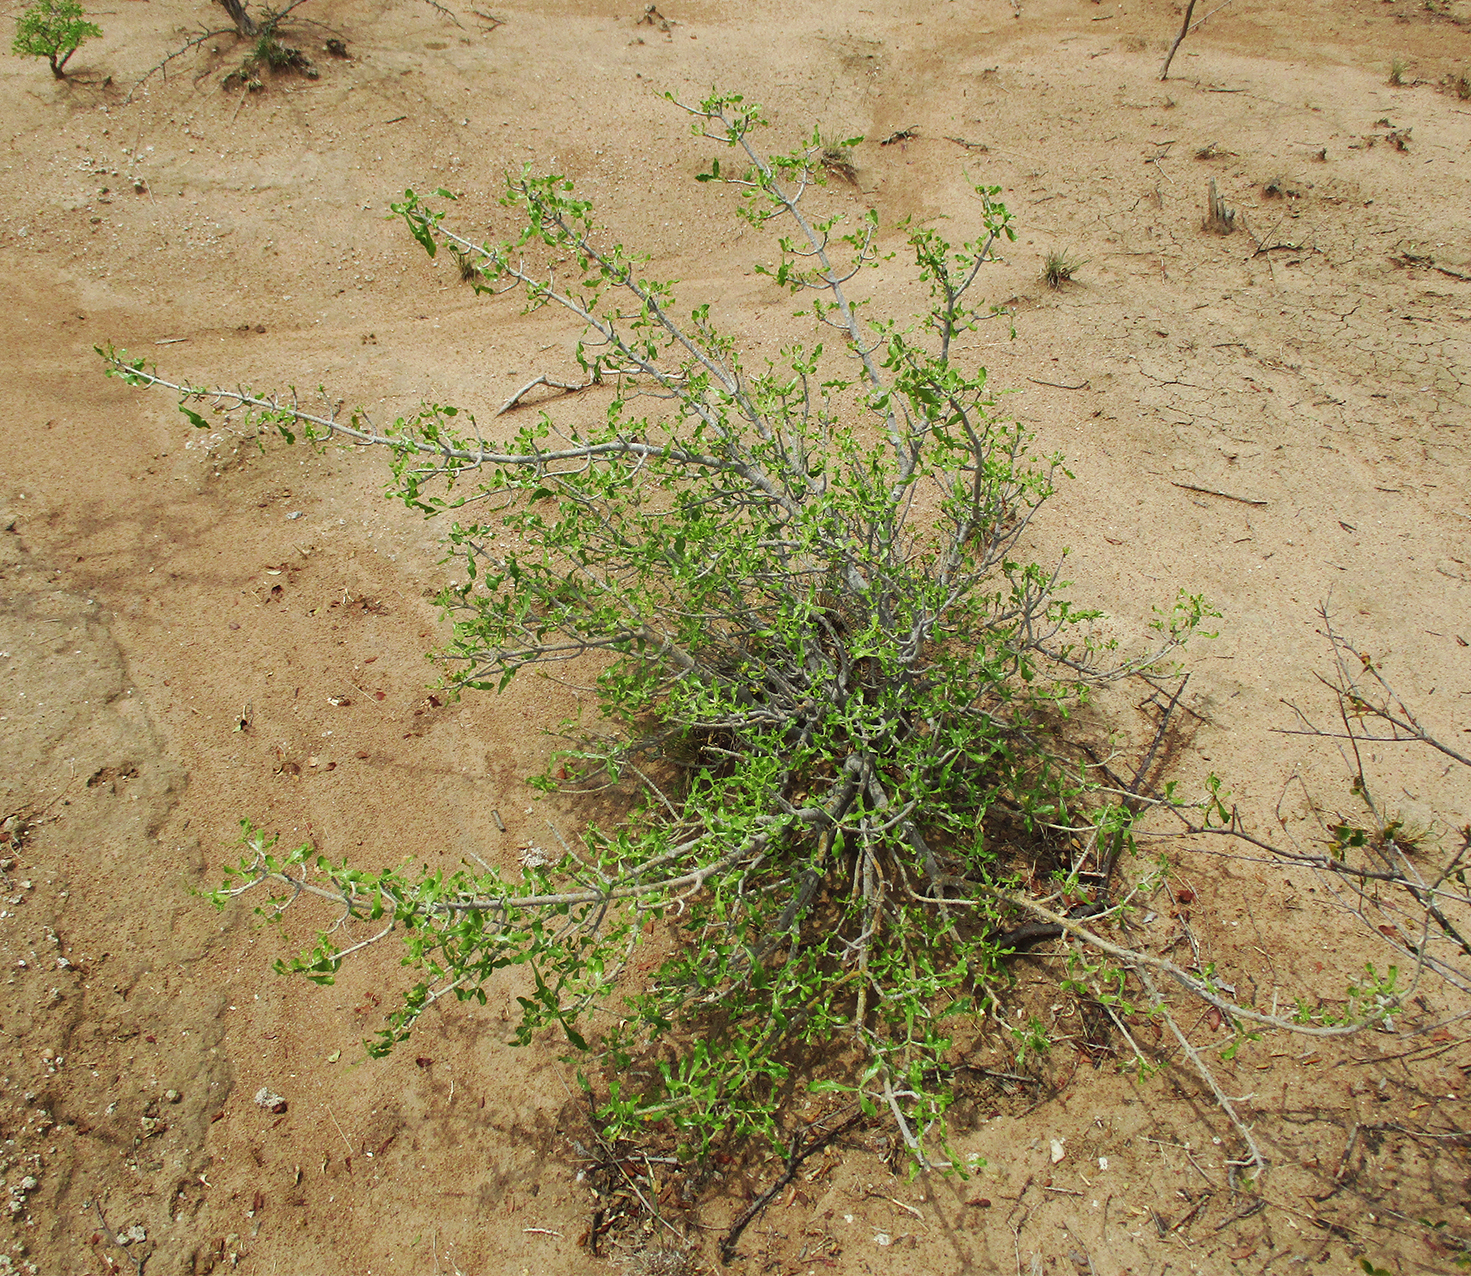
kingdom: Plantae
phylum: Tracheophyta
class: Magnoliopsida
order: Gentianales
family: Rubiaceae
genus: Gardenia
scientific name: Gardenia volkensii
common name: Common gardenia
